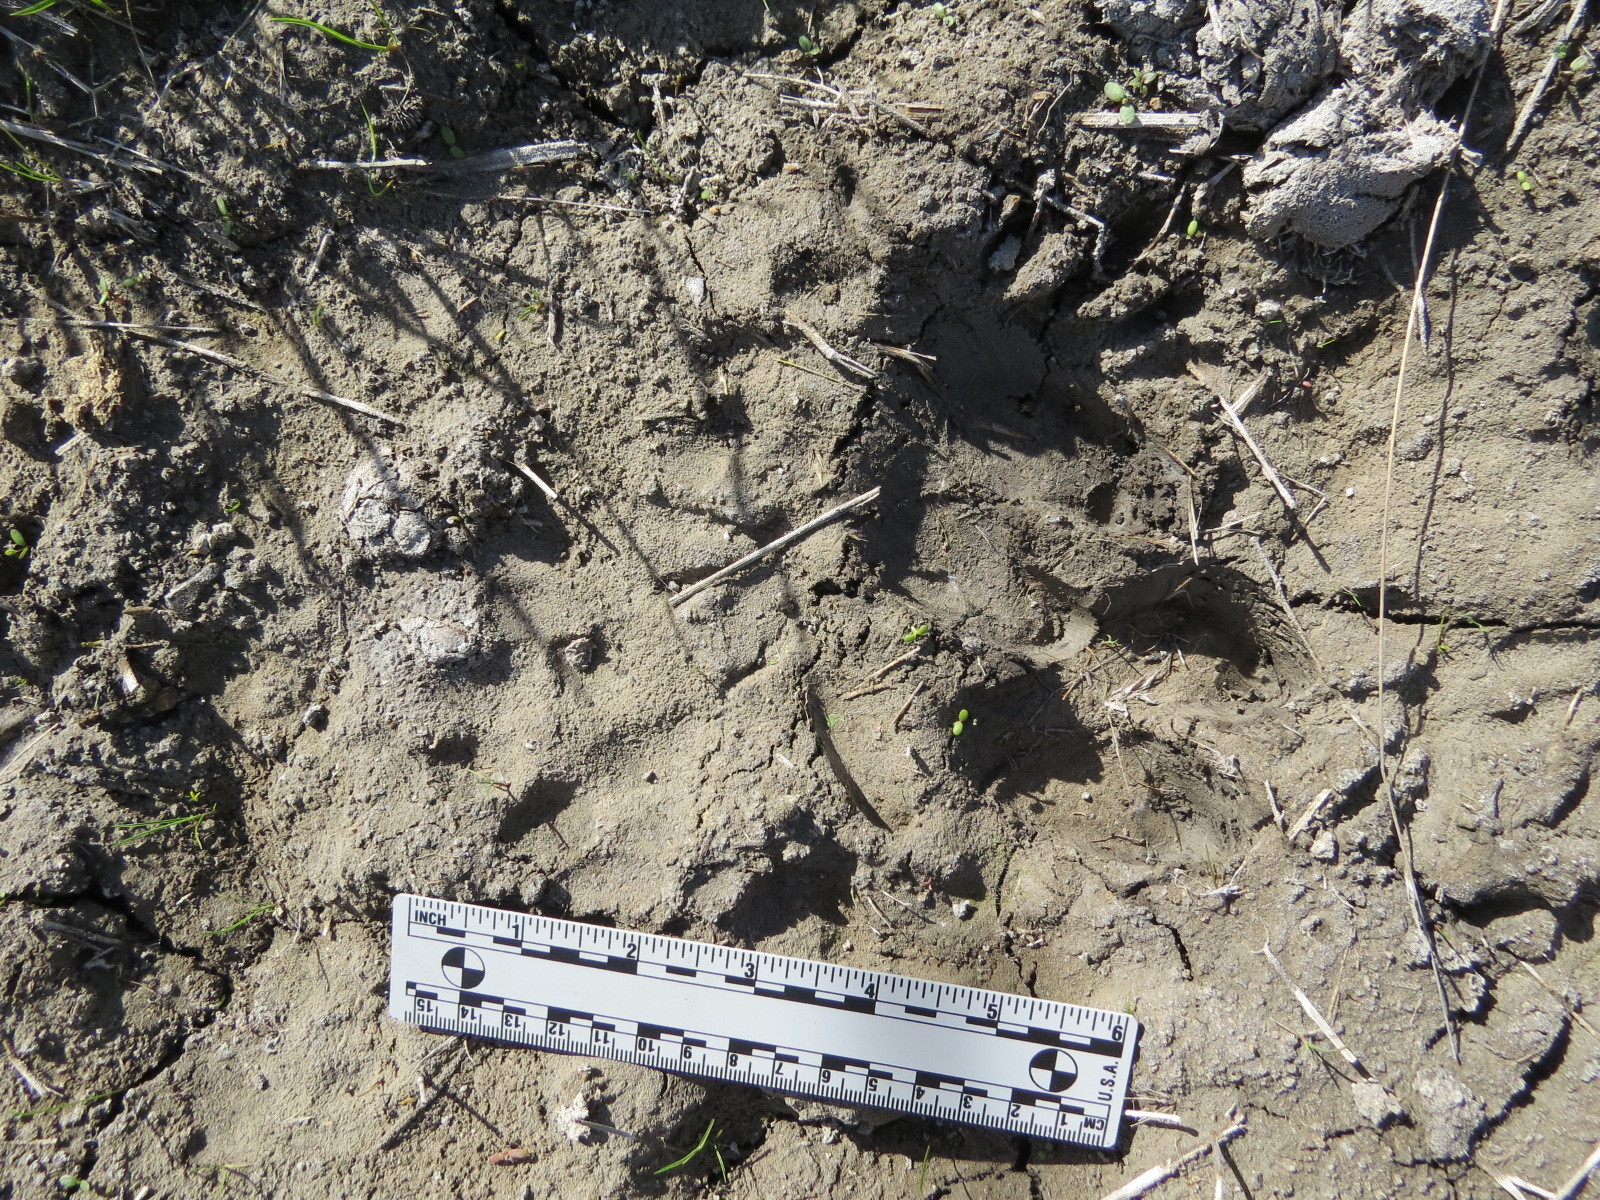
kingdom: Animalia
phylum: Chordata
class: Mammalia
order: Carnivora
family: Canidae
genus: Canis
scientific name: Canis latrans
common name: Coyote
